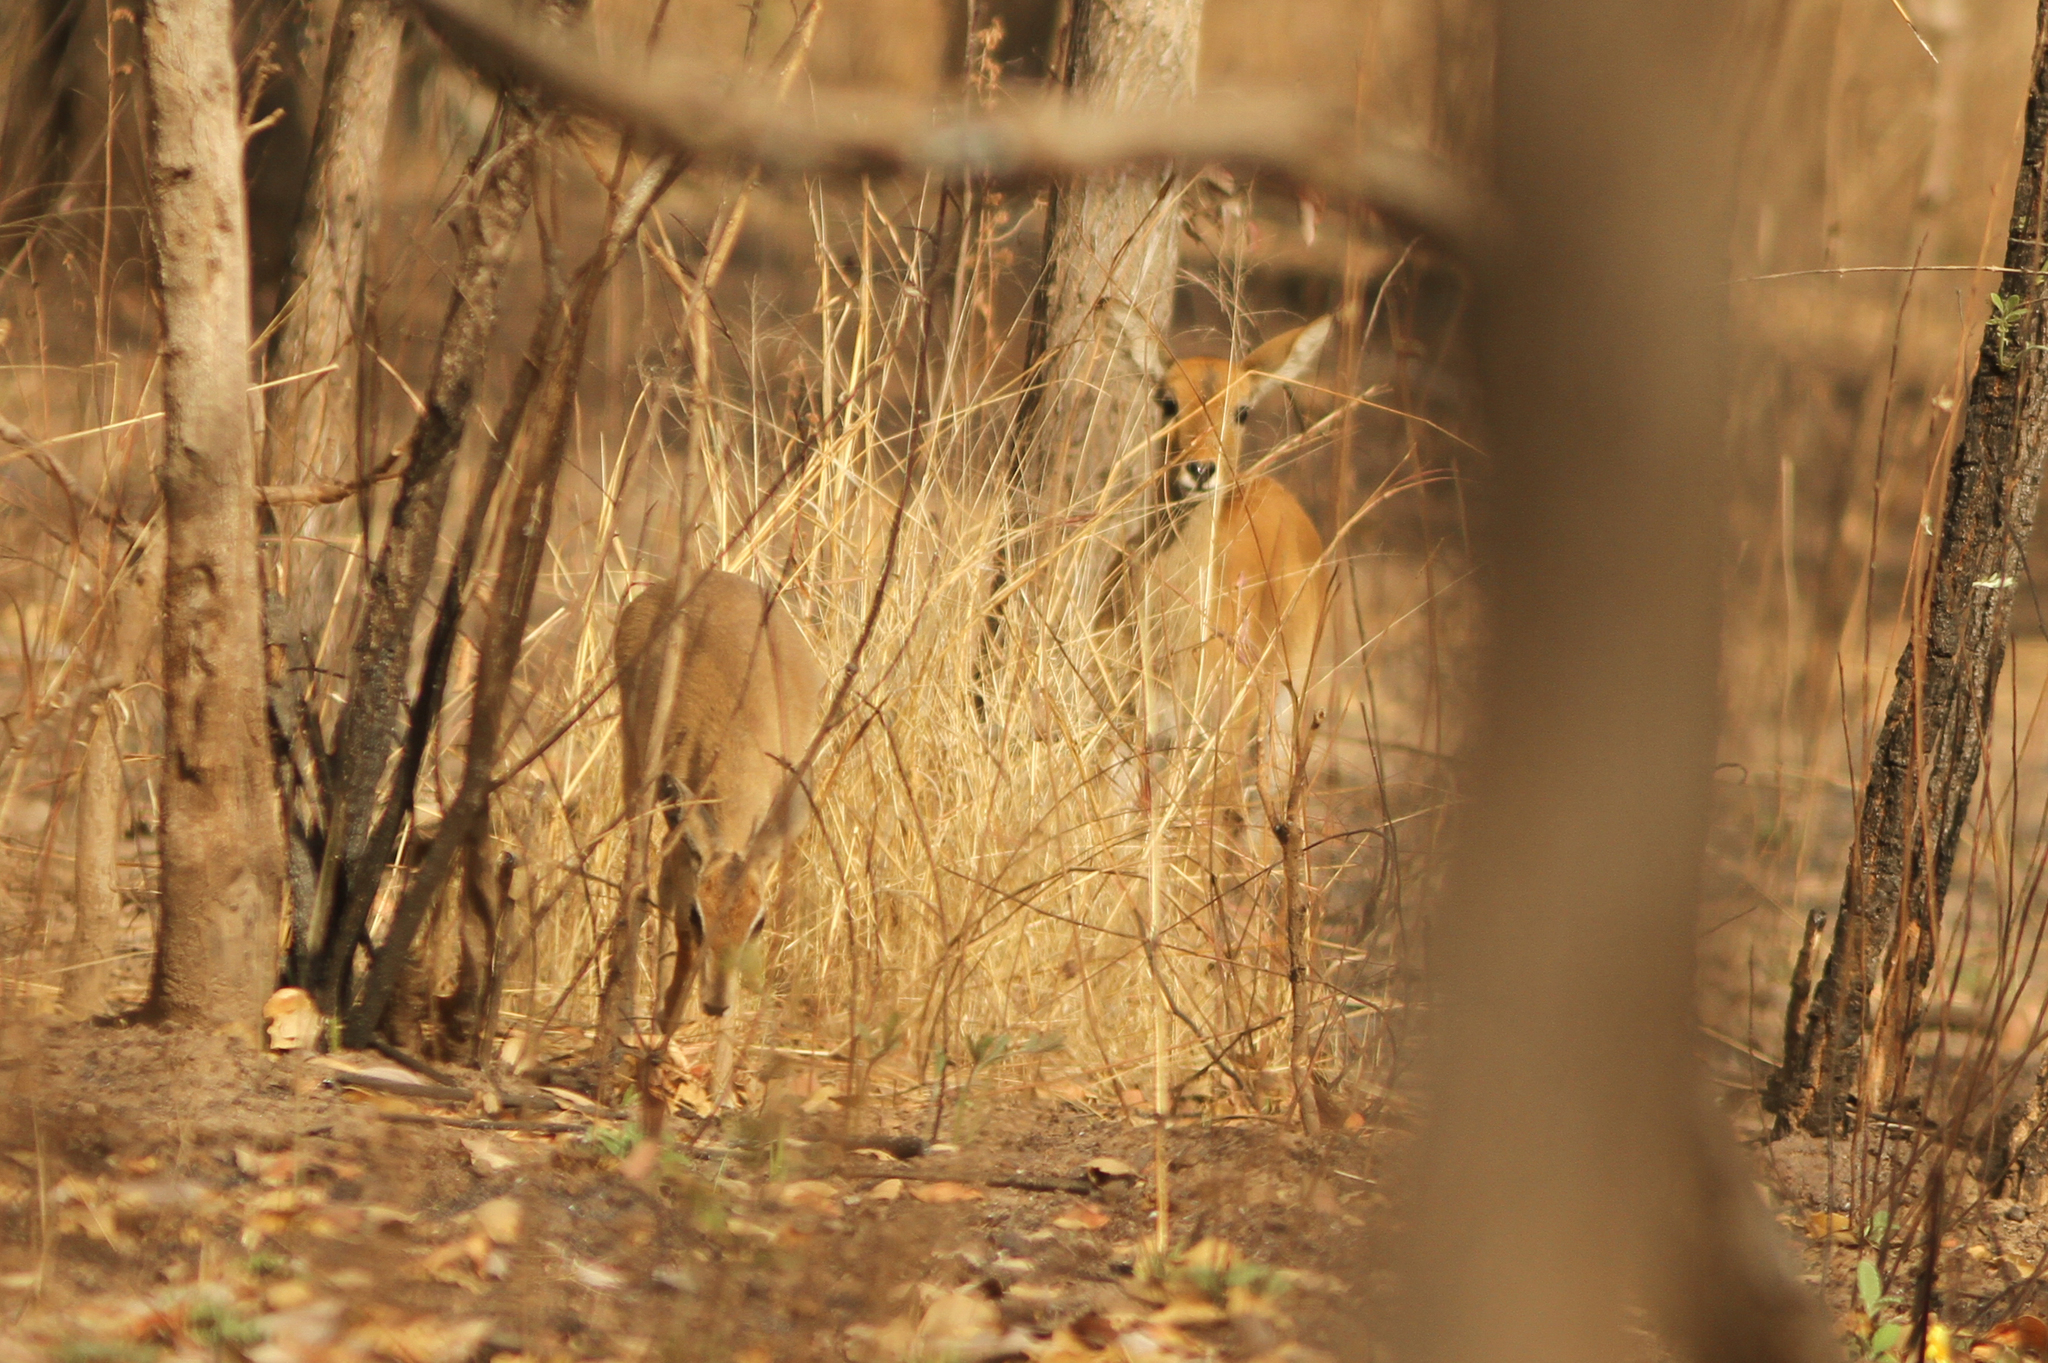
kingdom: Animalia
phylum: Chordata
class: Mammalia
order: Artiodactyla
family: Bovidae
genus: Ourebia
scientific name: Ourebia ourebi
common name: Oribi
